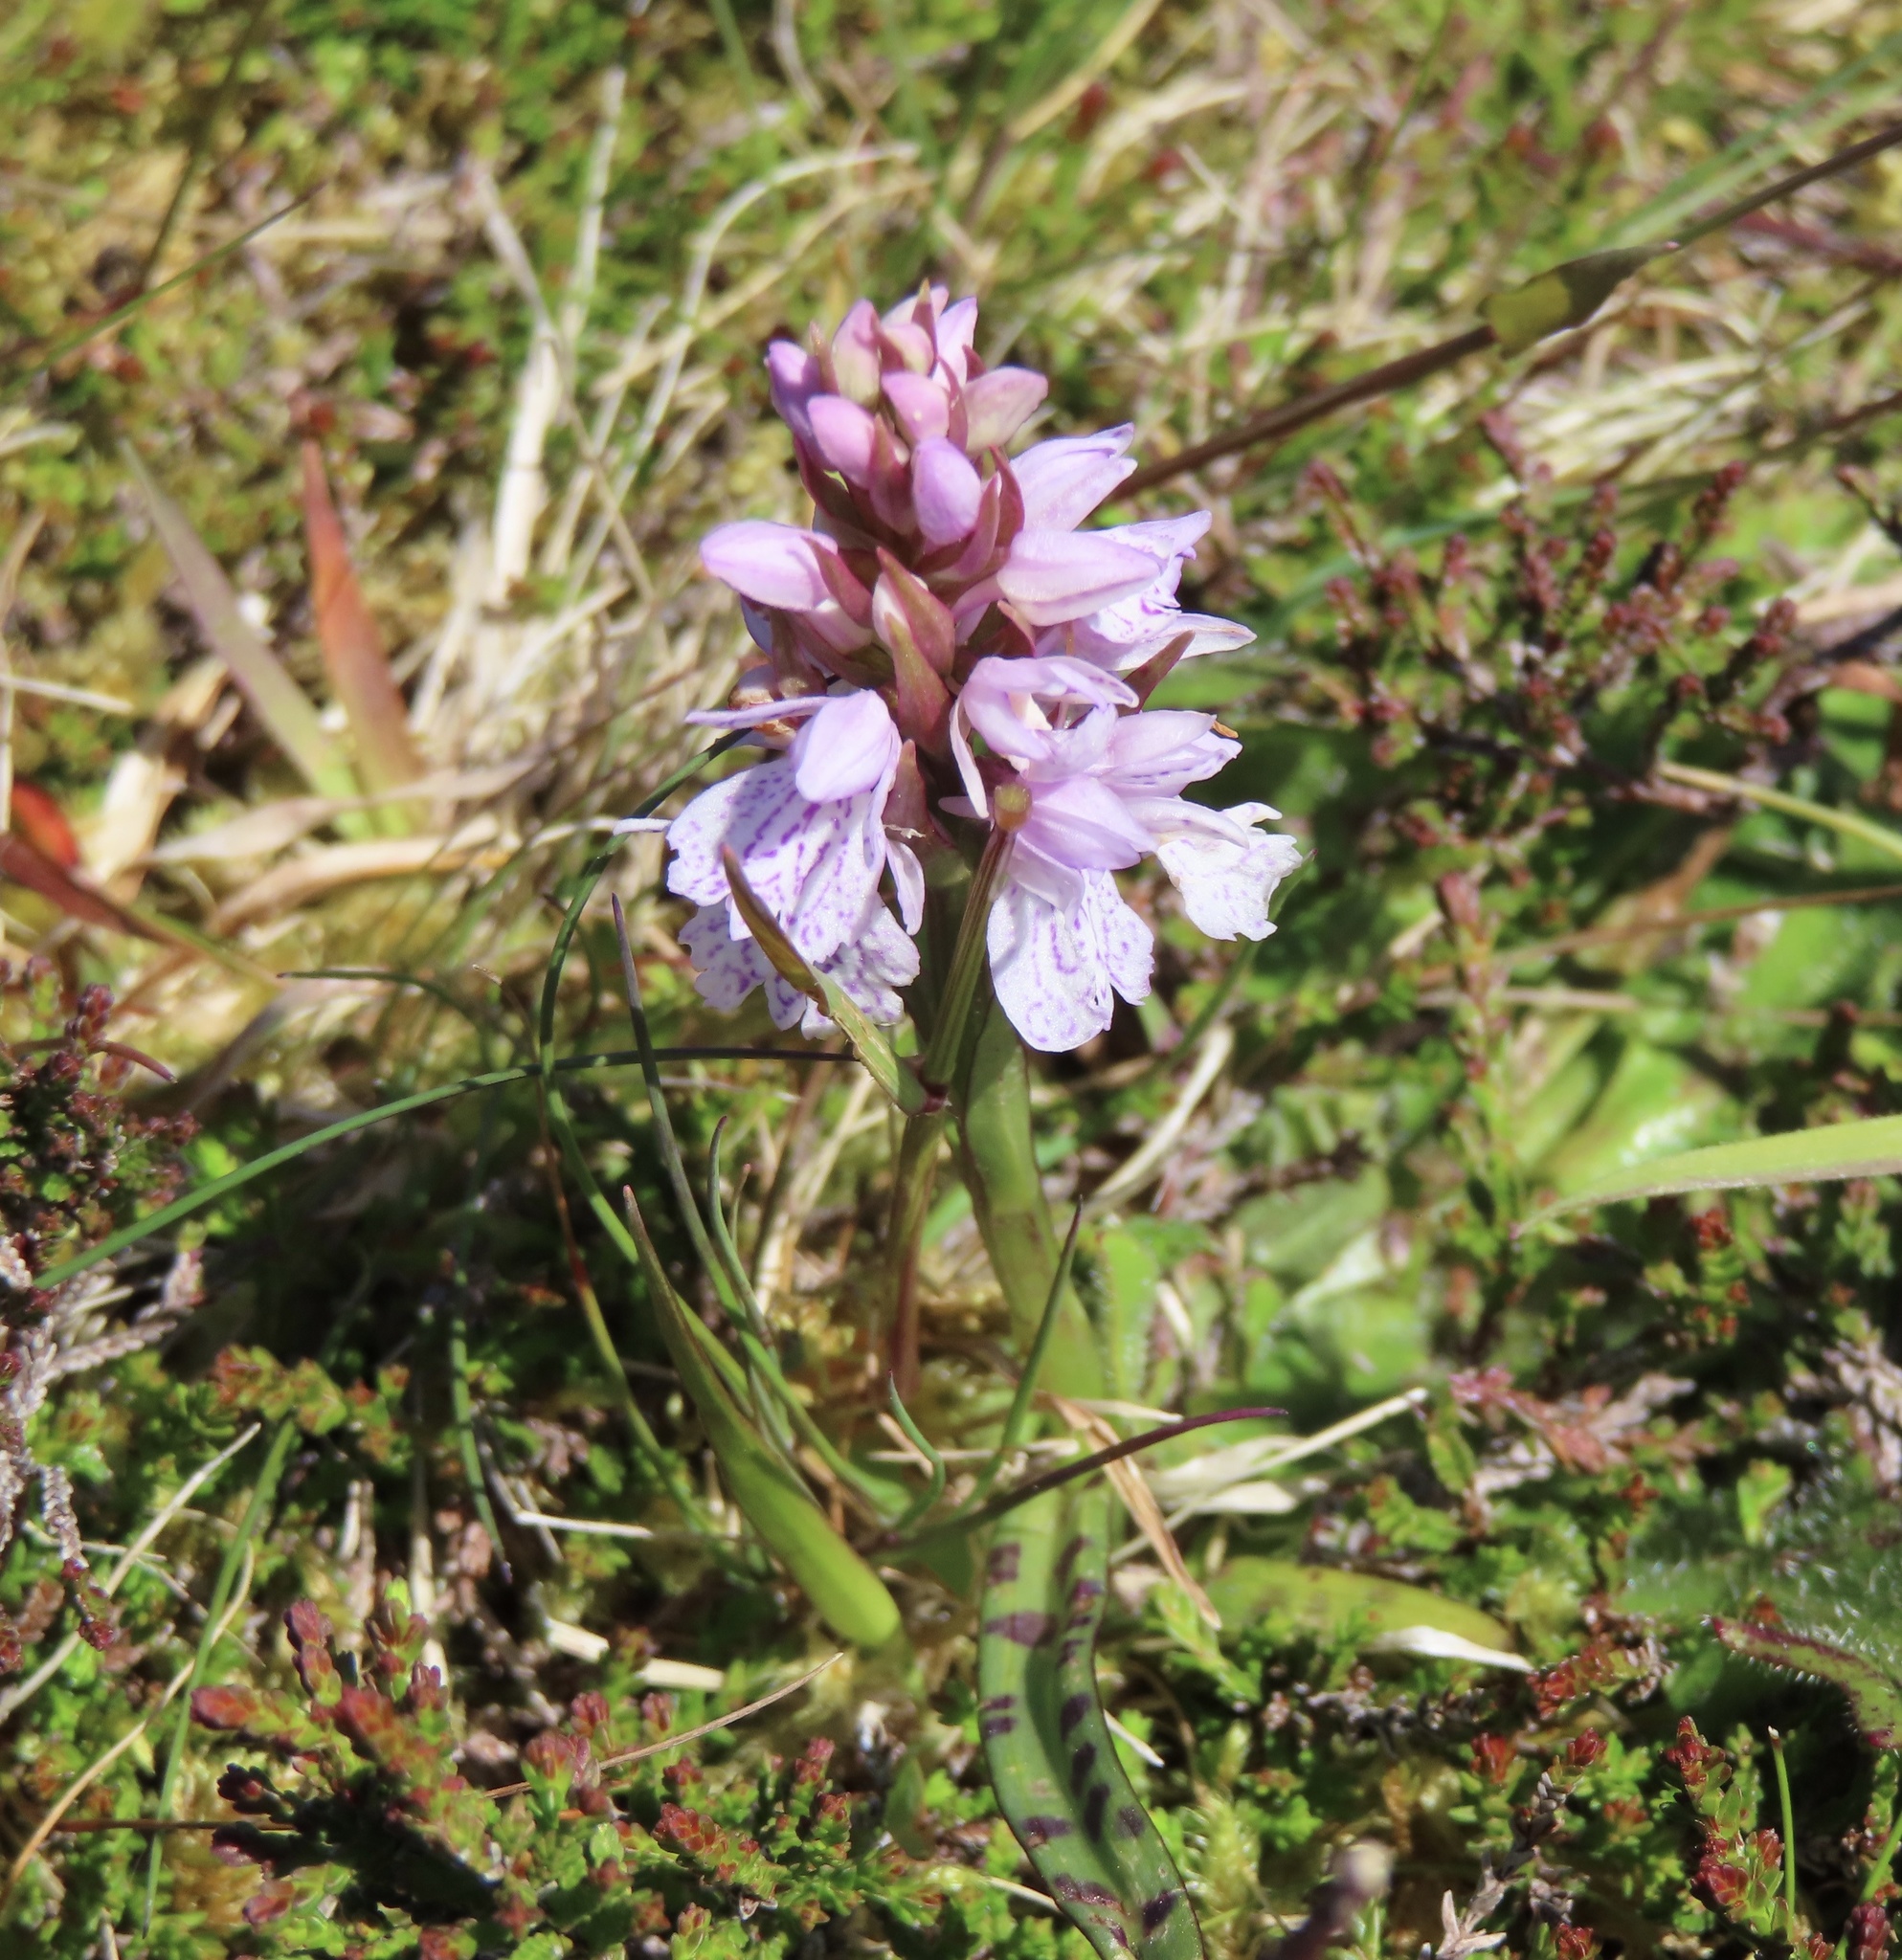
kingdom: Plantae
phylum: Tracheophyta
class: Liliopsida
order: Asparagales
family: Orchidaceae
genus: Dactylorhiza
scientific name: Dactylorhiza maculata
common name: Heath spotted-orchid
